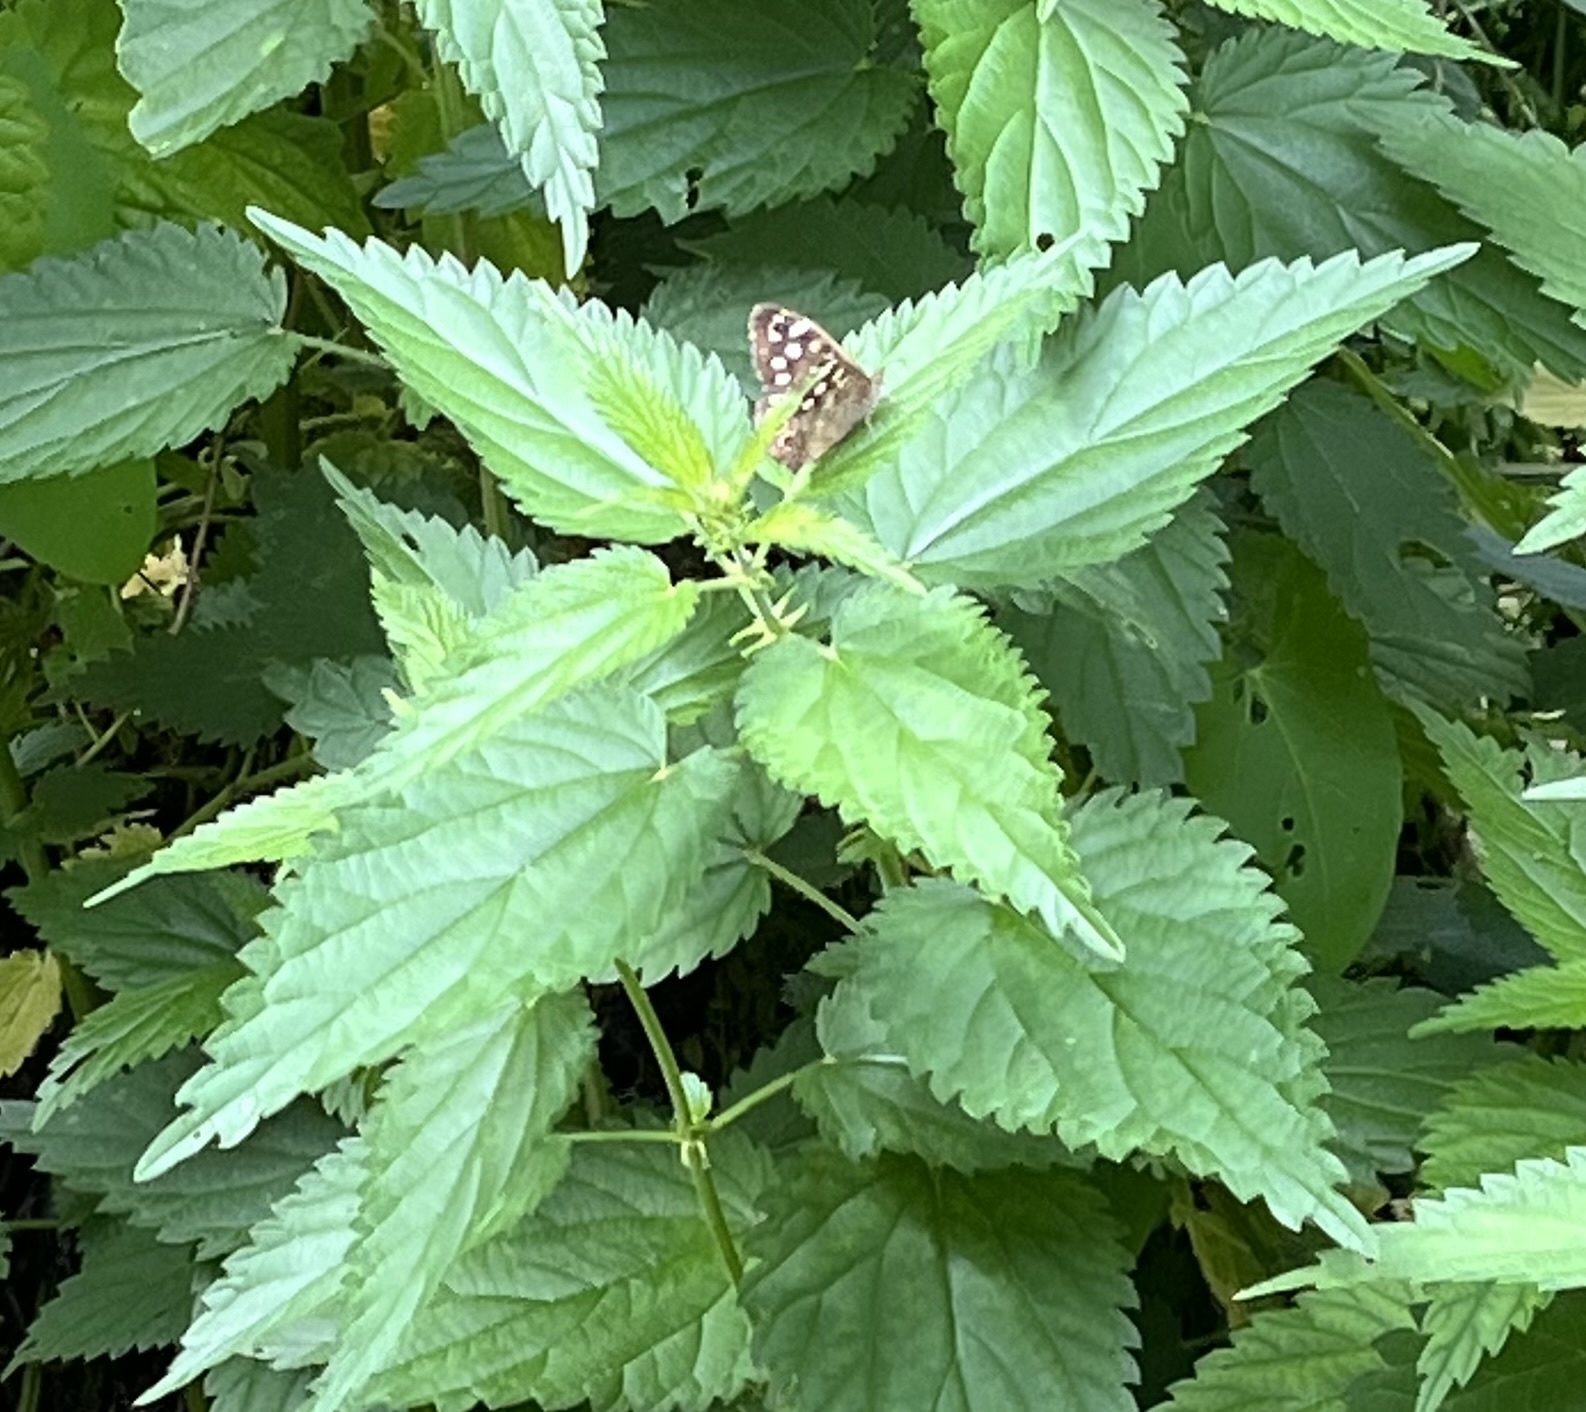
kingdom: Animalia
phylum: Arthropoda
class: Insecta
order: Lepidoptera
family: Nymphalidae
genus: Pararge
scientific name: Pararge aegeria
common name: Speckled wood
